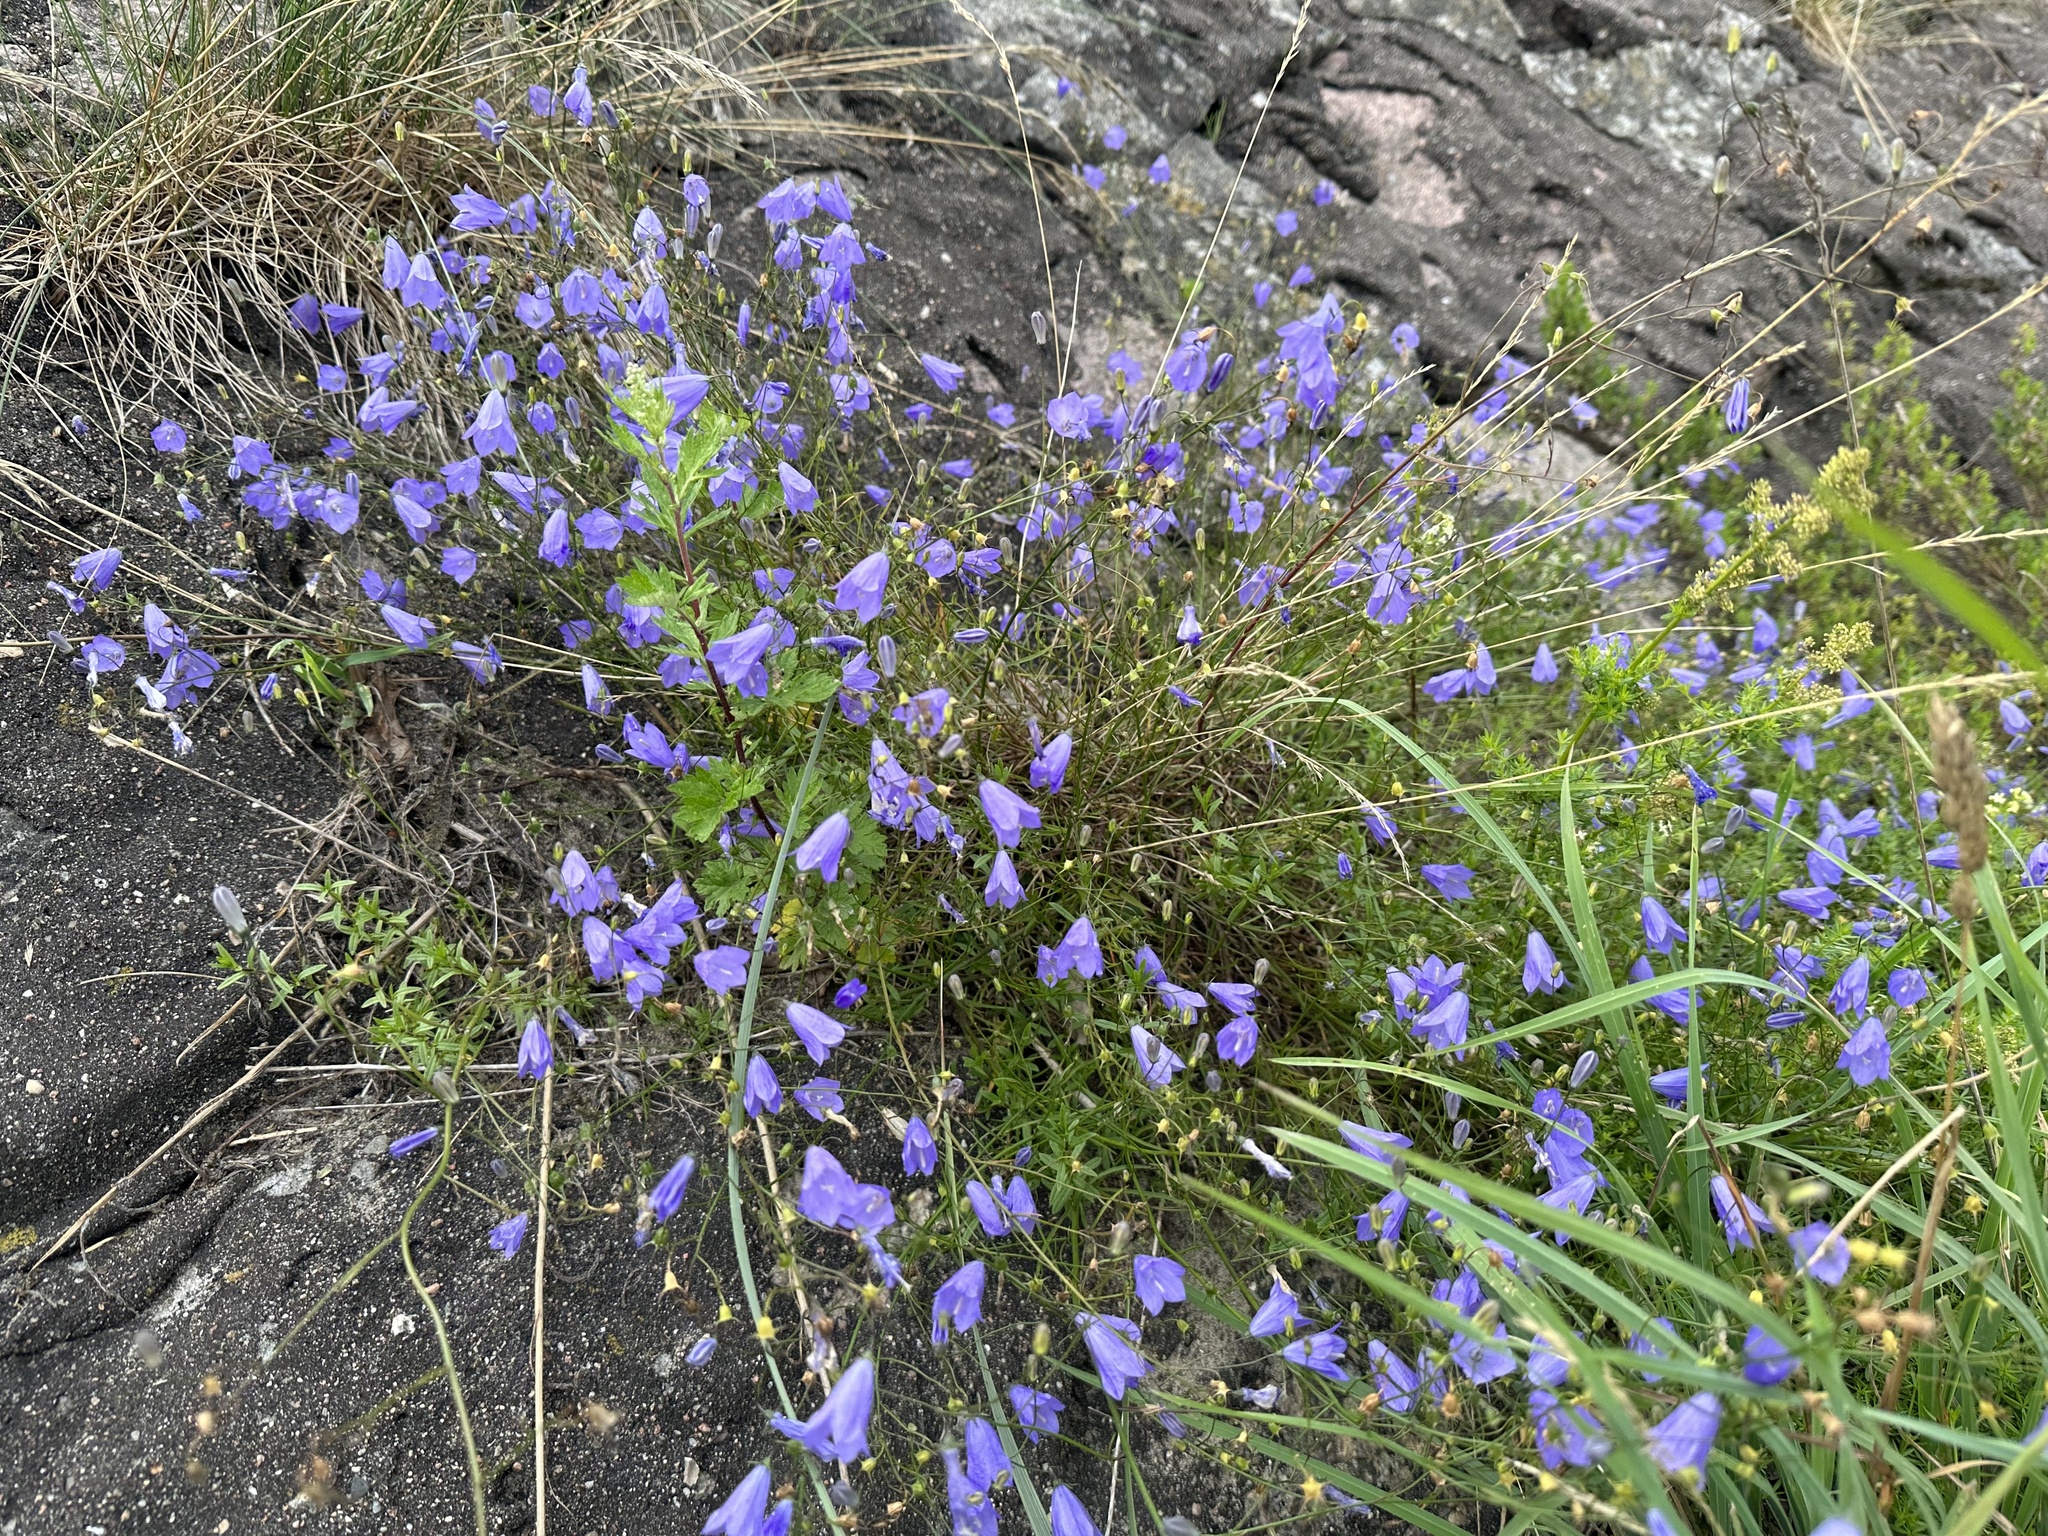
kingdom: Plantae
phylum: Tracheophyta
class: Magnoliopsida
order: Asterales
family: Campanulaceae
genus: Campanula
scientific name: Campanula rotundifolia
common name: Harebell
